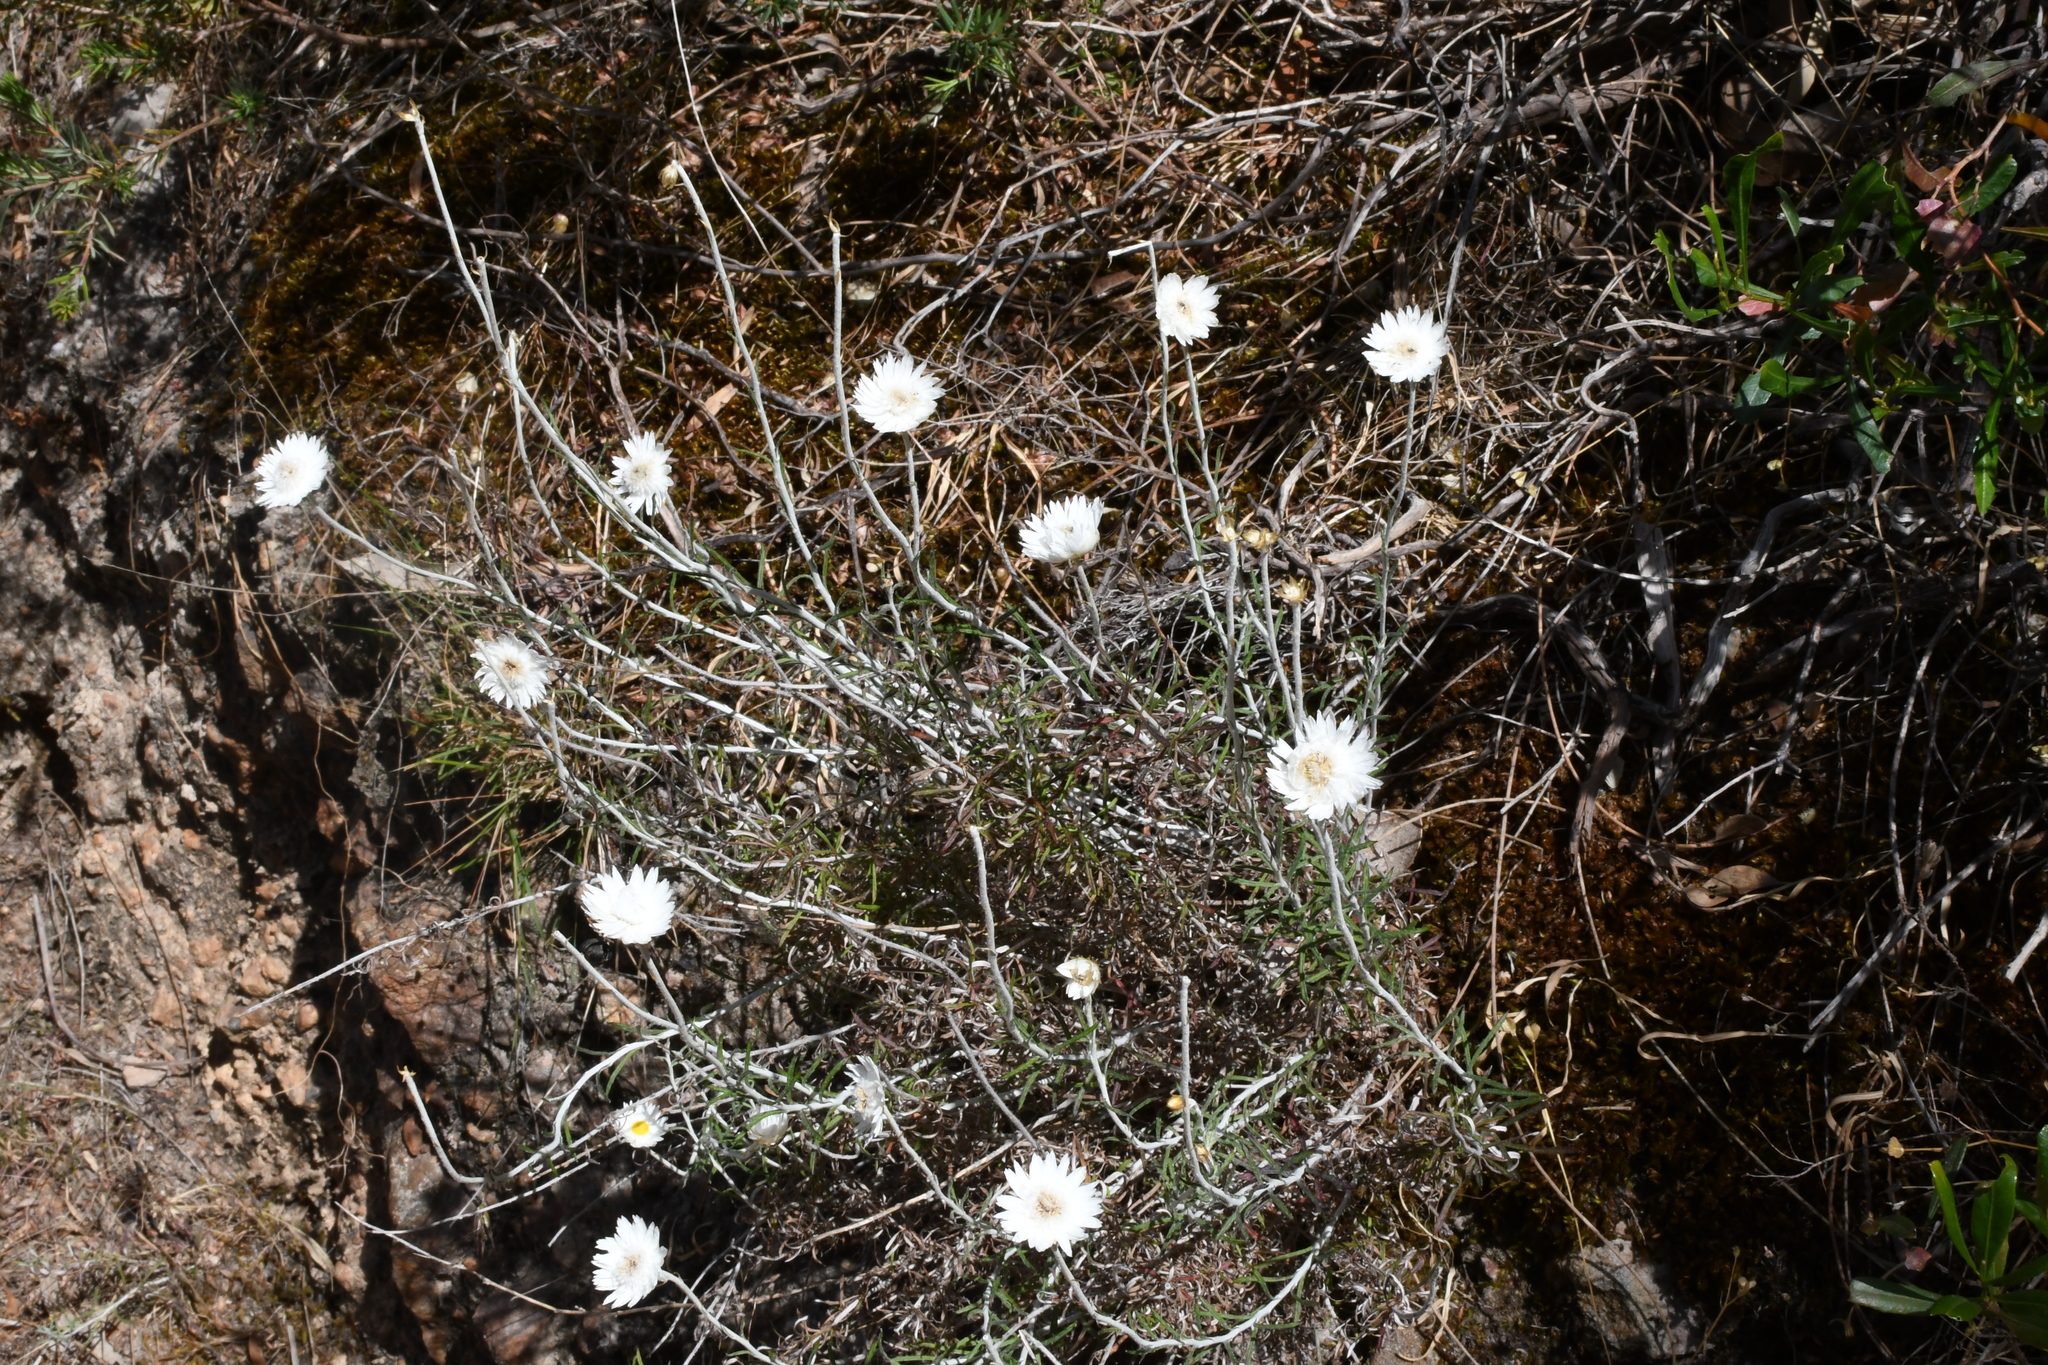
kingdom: Plantae
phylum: Tracheophyta
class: Magnoliopsida
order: Asterales
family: Asteraceae
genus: Chrysocephalum
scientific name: Chrysocephalum baxteri
